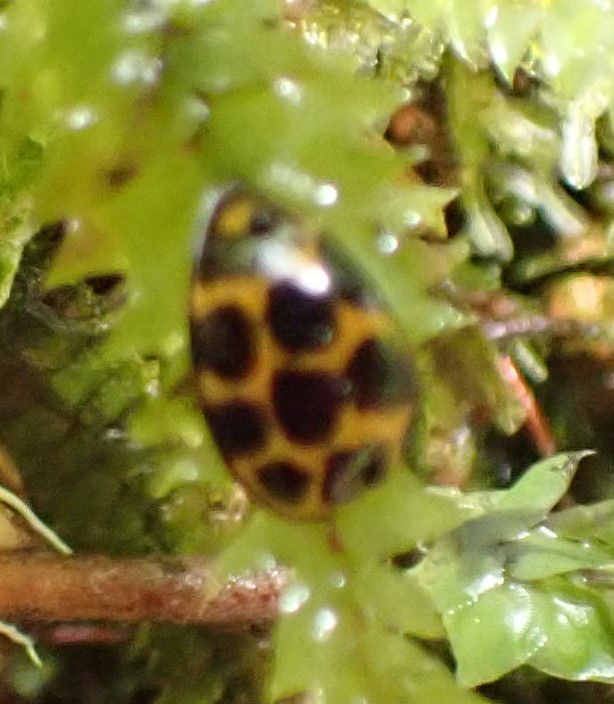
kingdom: Animalia
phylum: Arthropoda
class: Insecta
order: Coleoptera
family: Coccinellidae
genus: Harmonia
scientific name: Harmonia conformis
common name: Common spotted ladybird beetle
